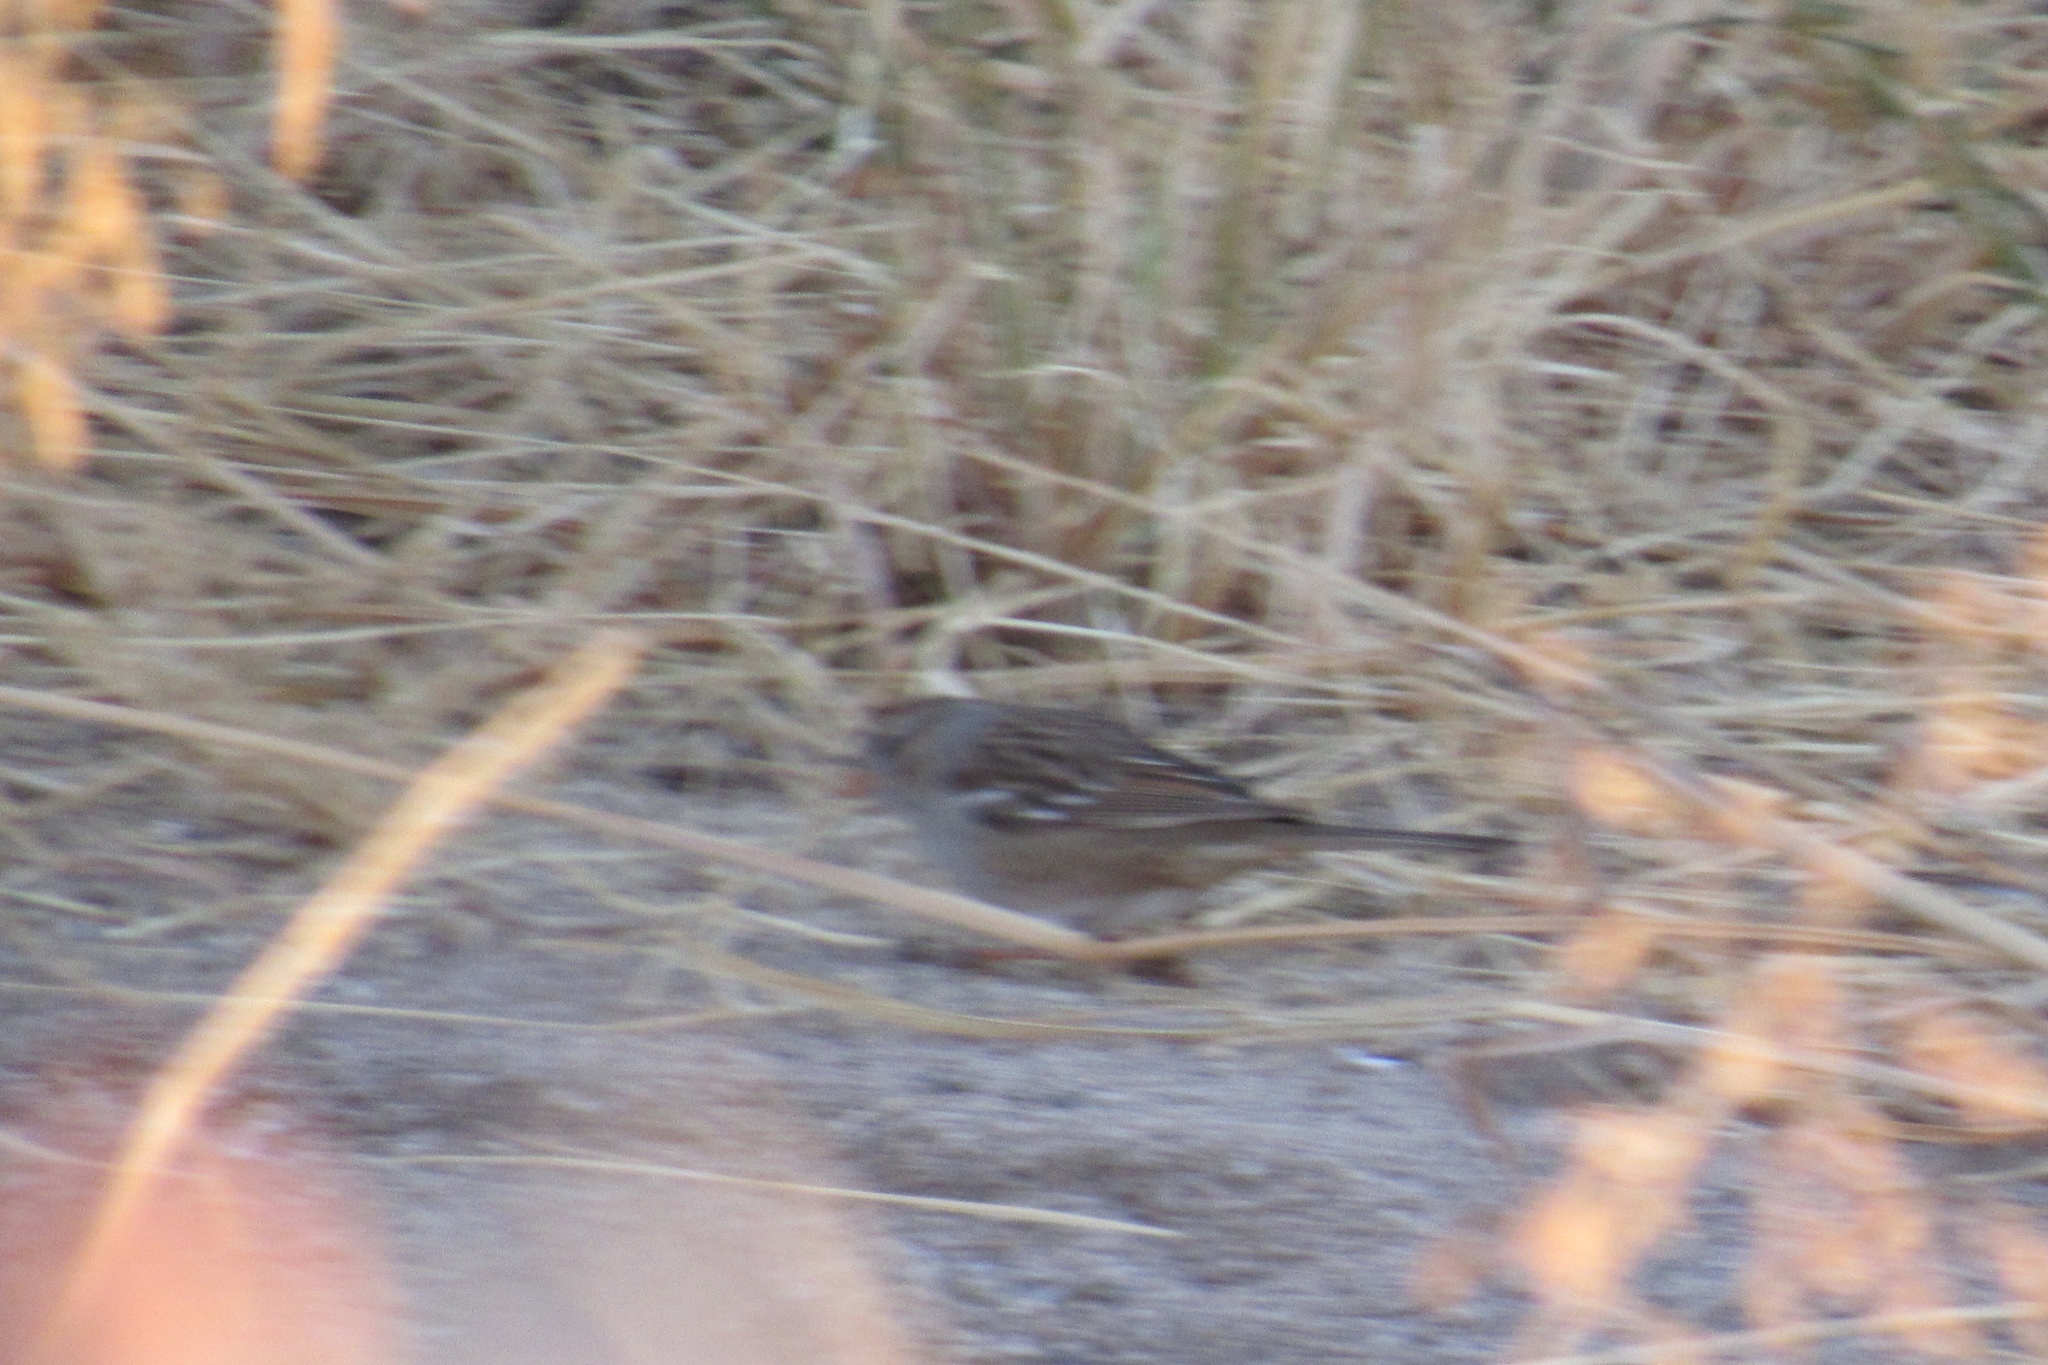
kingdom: Animalia
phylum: Chordata
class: Aves
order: Passeriformes
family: Passerellidae
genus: Zonotrichia
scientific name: Zonotrichia leucophrys
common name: White-crowned sparrow
